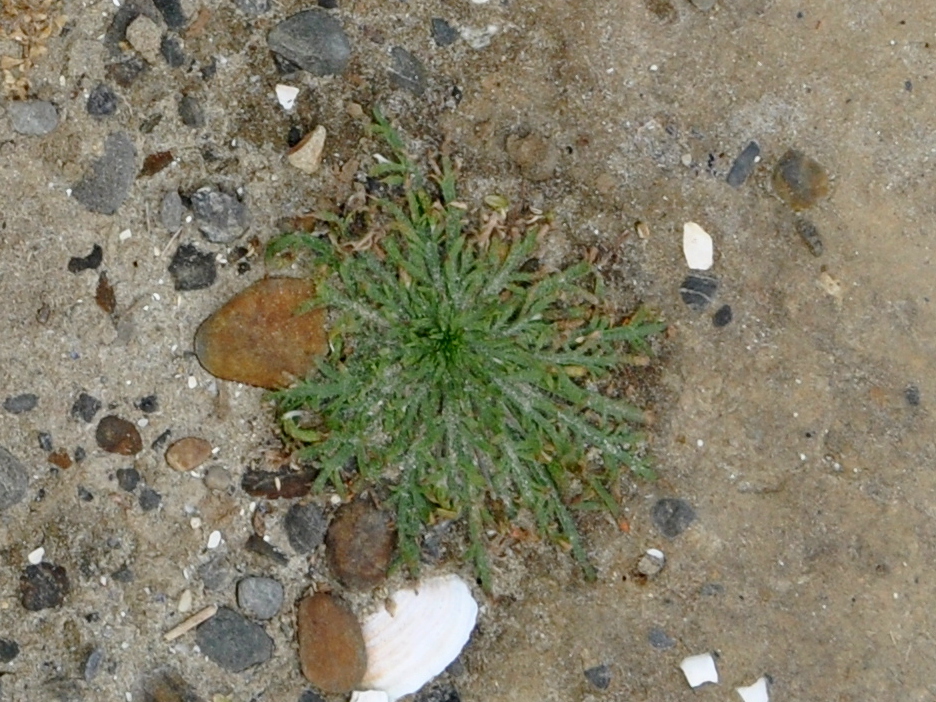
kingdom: Plantae
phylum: Tracheophyta
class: Magnoliopsida
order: Lamiales
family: Plantaginaceae
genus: Plantago
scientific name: Plantago coronopus
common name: Buck's-horn plantain
